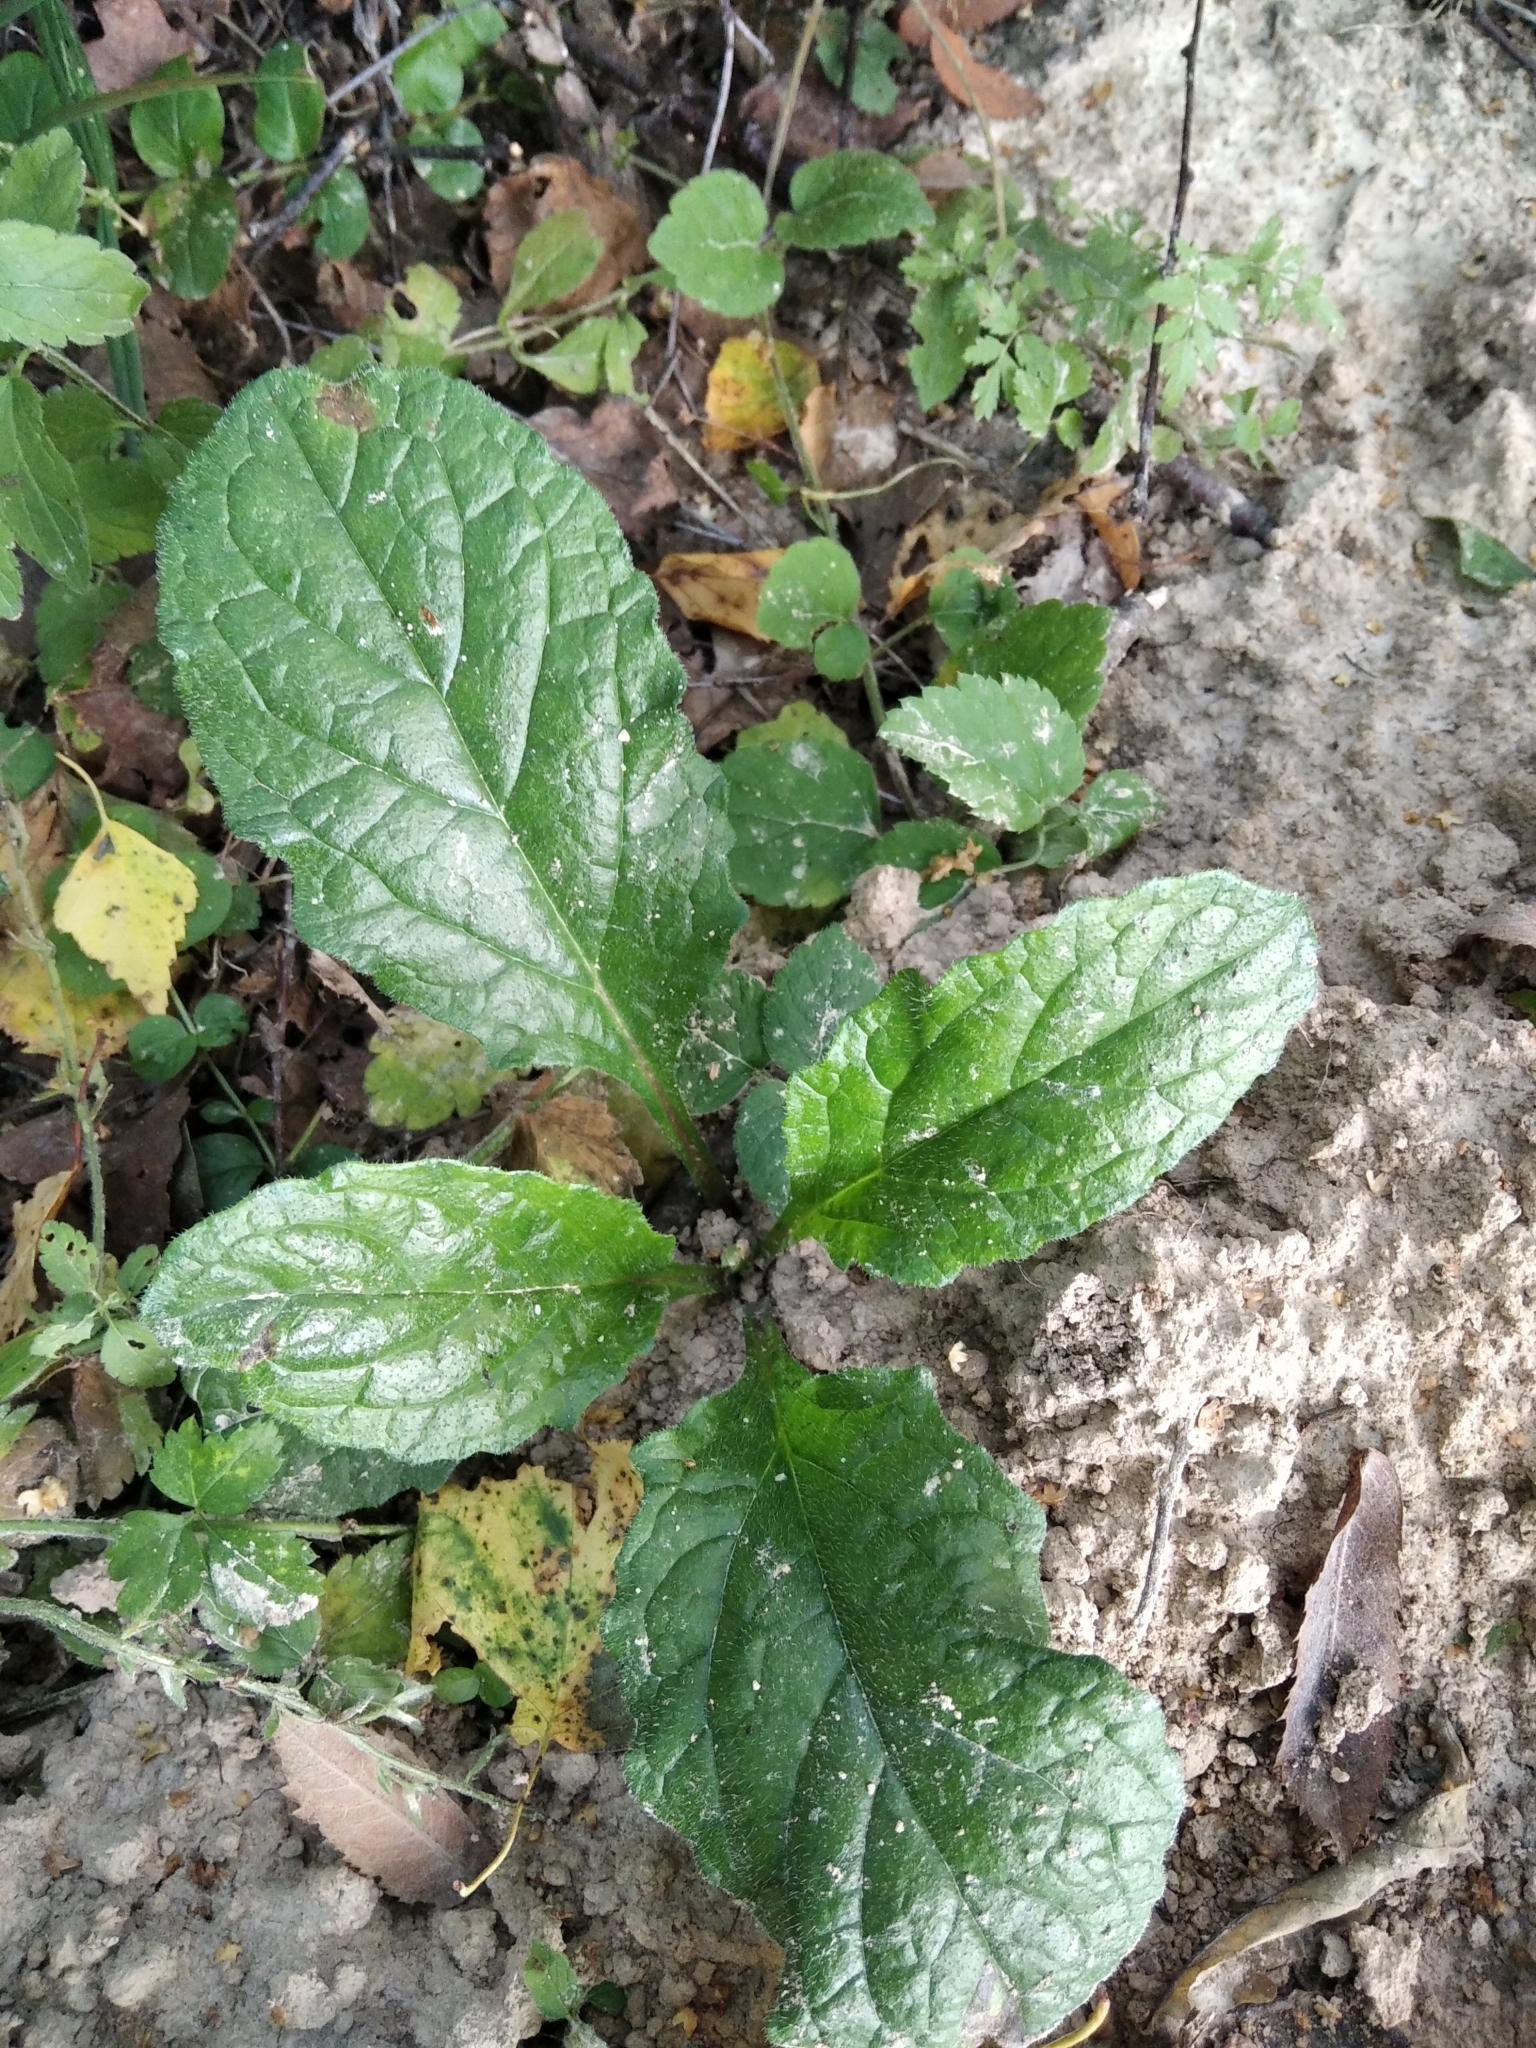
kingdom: Plantae
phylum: Tracheophyta
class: Magnoliopsida
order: Lamiales
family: Lamiaceae
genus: Ajuga
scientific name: Ajuga reptans
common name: Bugle
